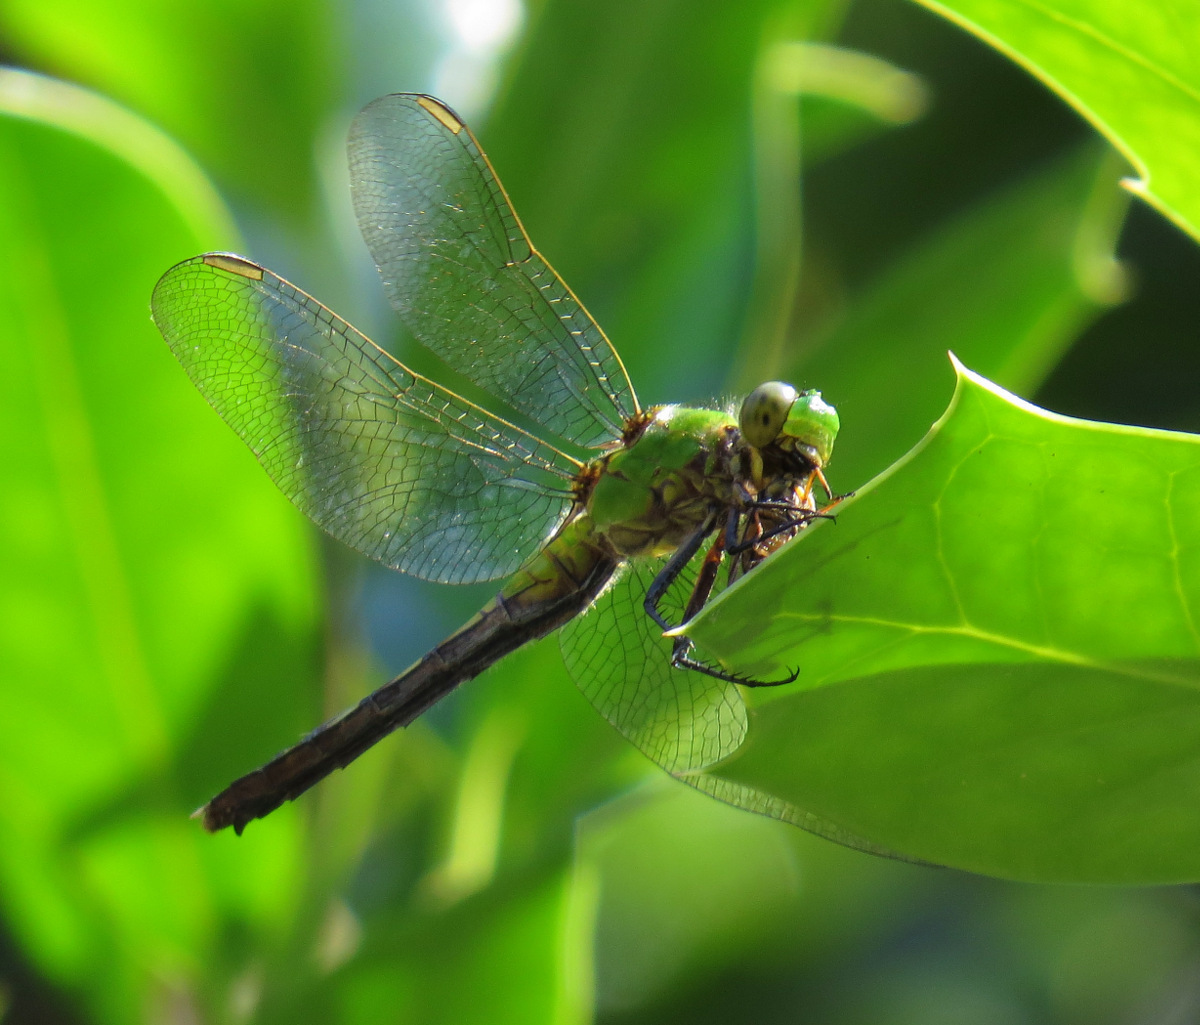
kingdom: Animalia
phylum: Arthropoda
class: Insecta
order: Odonata
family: Libellulidae
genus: Erythemis
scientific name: Erythemis simplicicollis
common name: Eastern pondhawk
